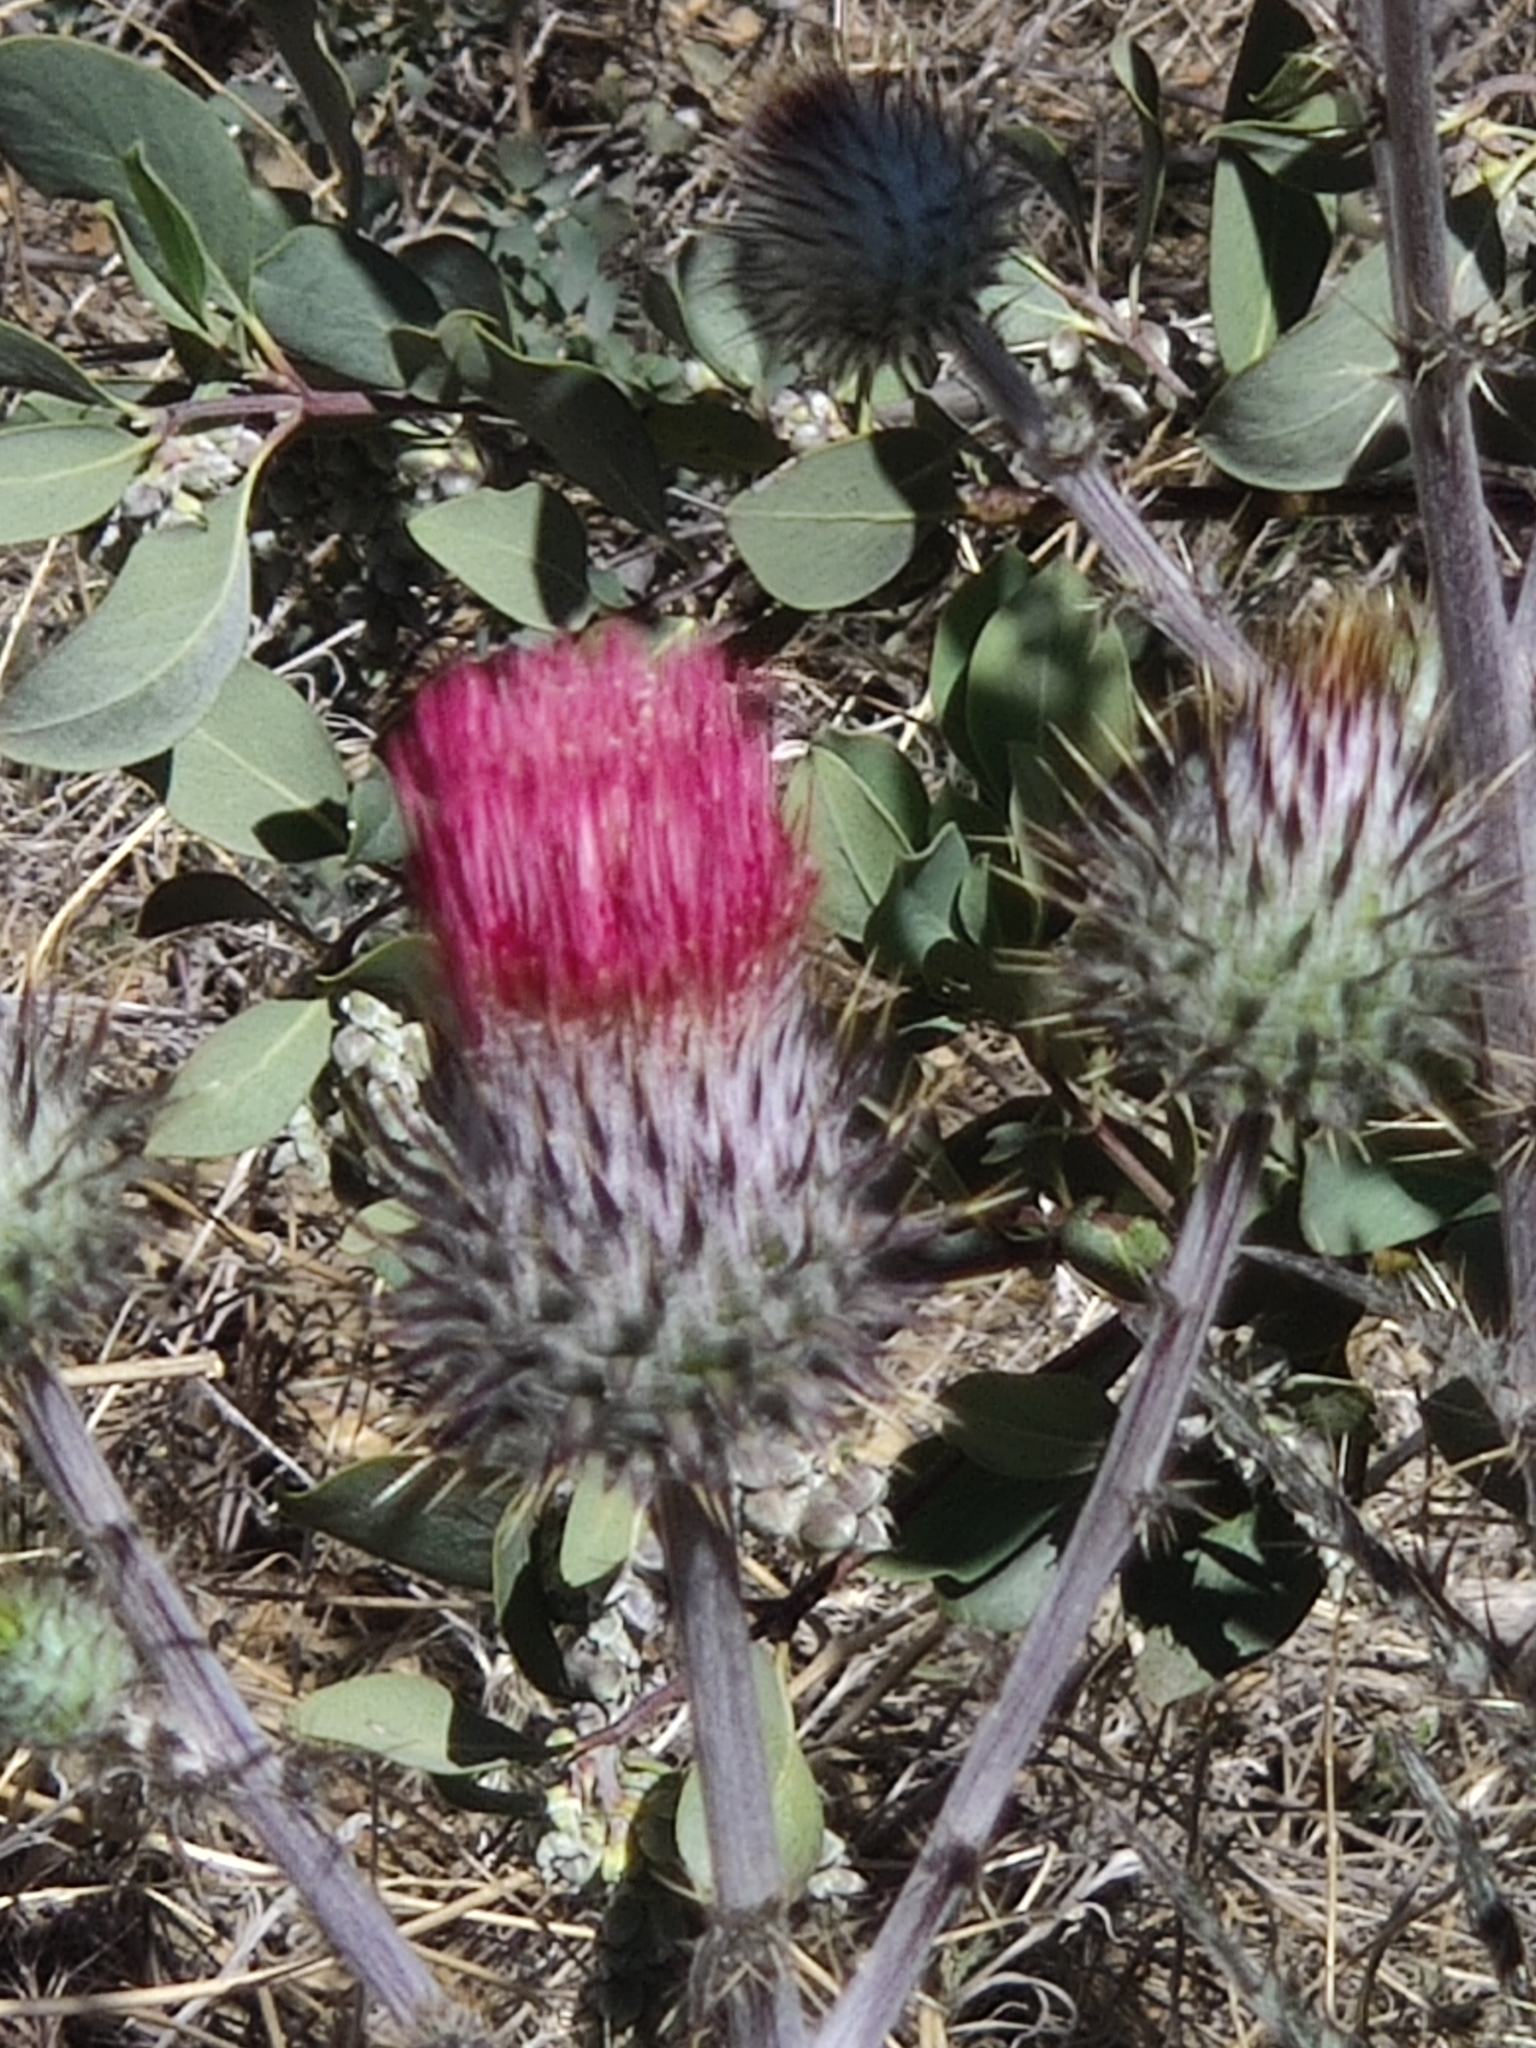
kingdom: Plantae
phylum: Tracheophyta
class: Magnoliopsida
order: Asterales
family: Asteraceae
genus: Cirsium
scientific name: Cirsium occidentale
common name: Western thistle
